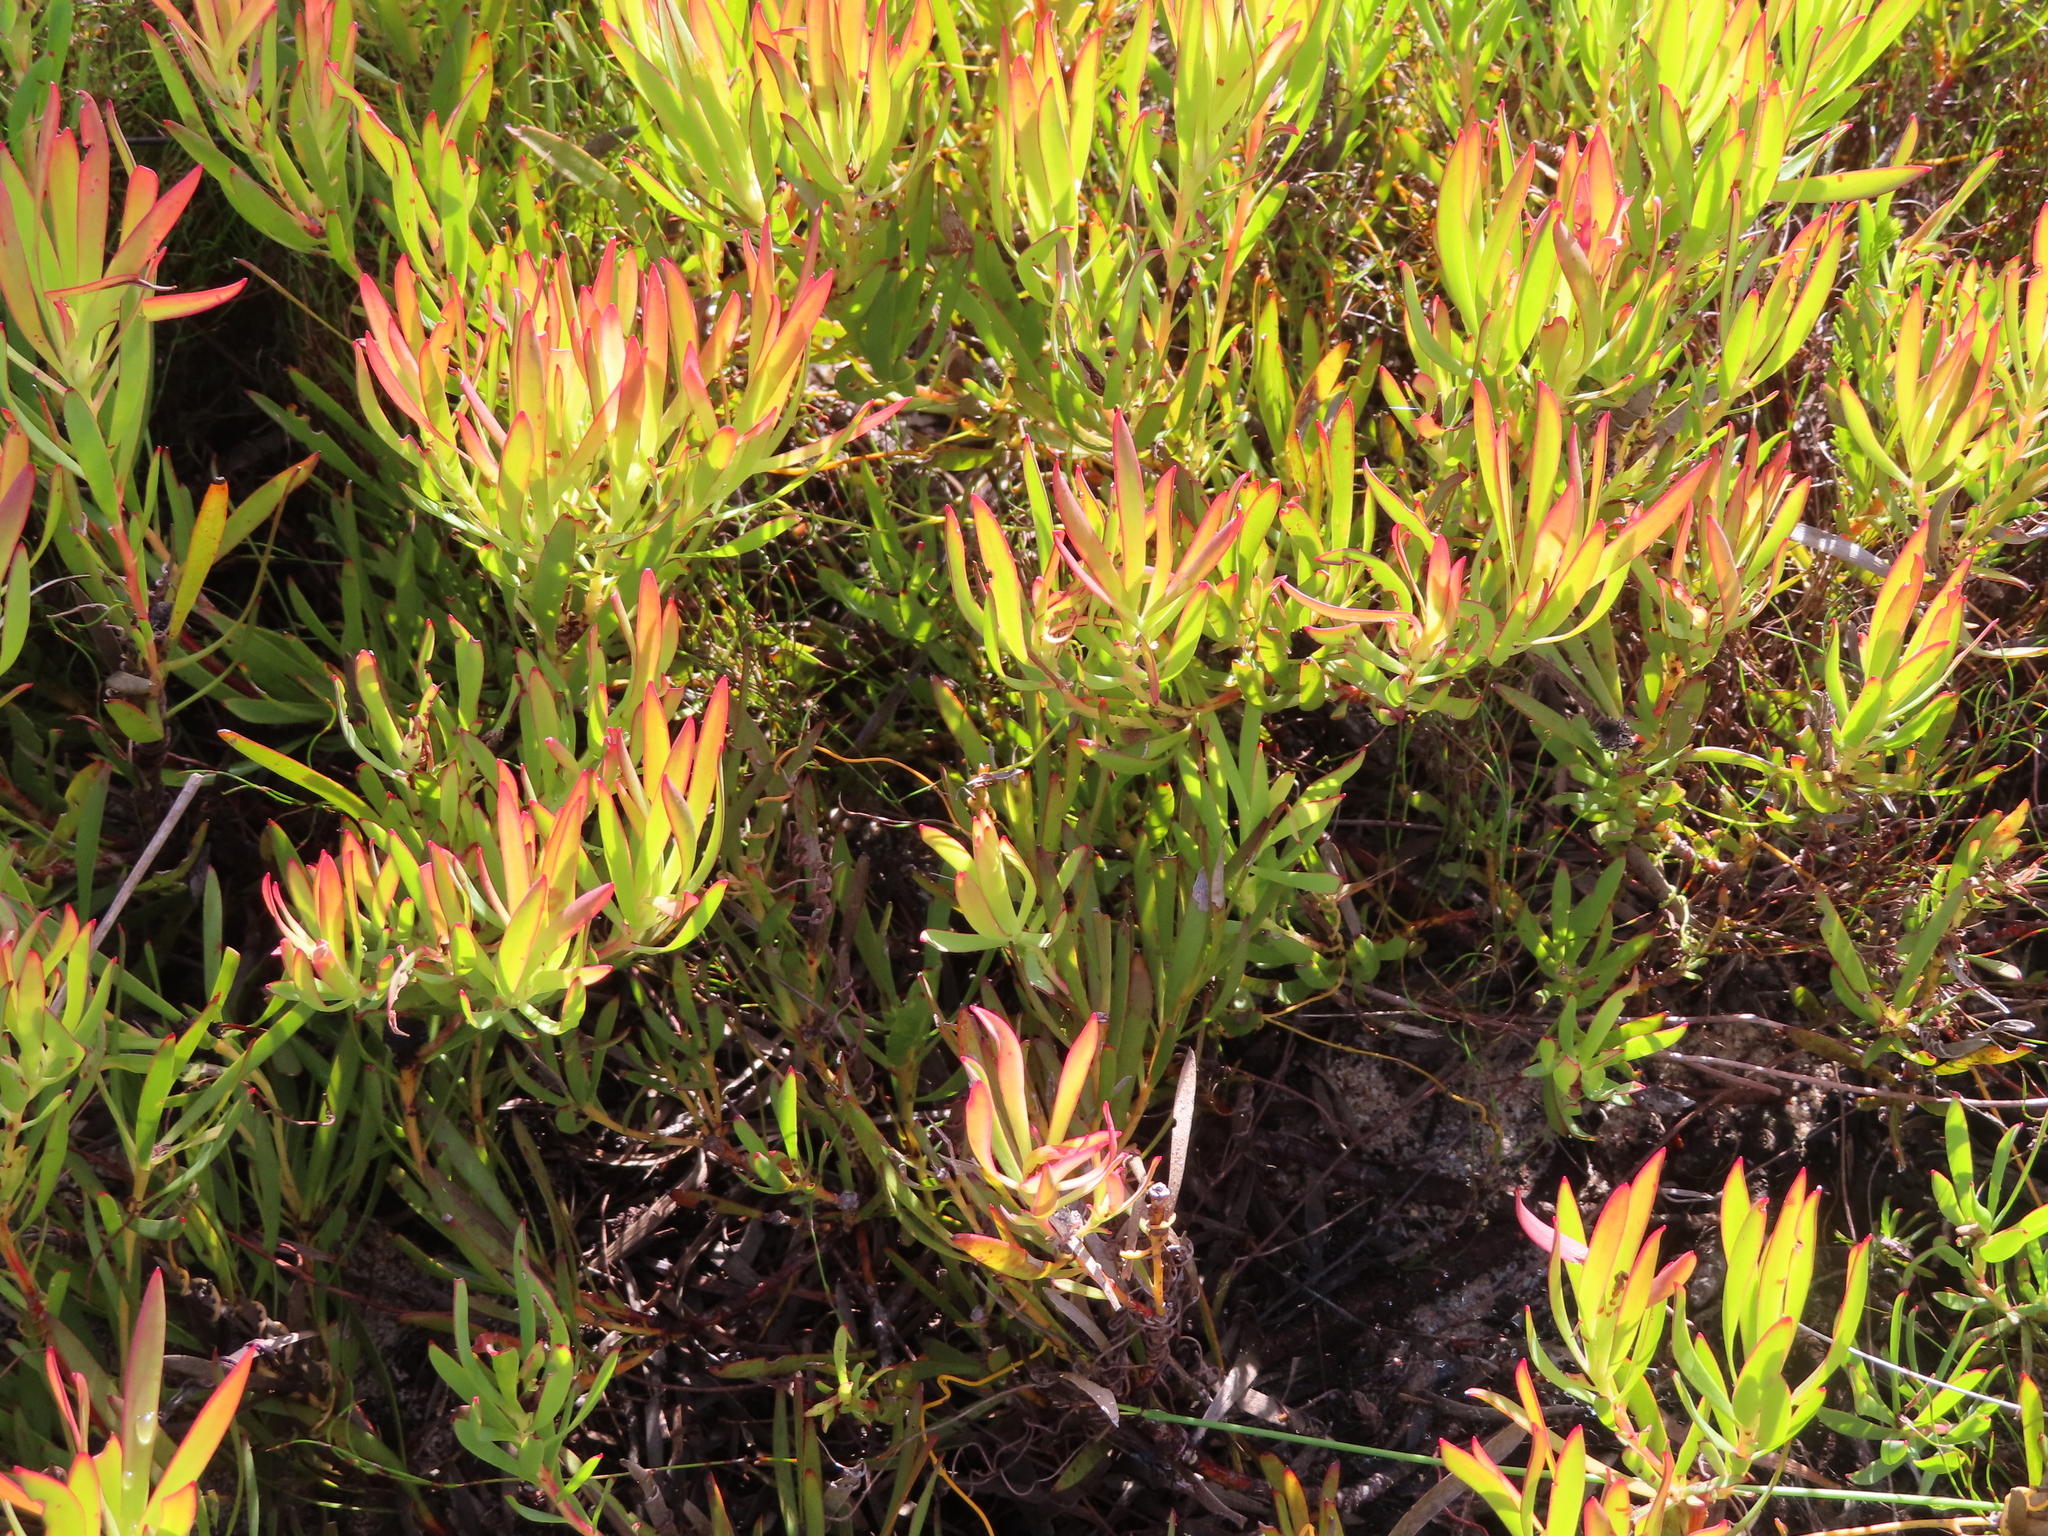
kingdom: Plantae
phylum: Tracheophyta
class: Magnoliopsida
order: Proteales
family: Proteaceae
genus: Leucadendron
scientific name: Leucadendron salignum
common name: Common sunshine conebush
